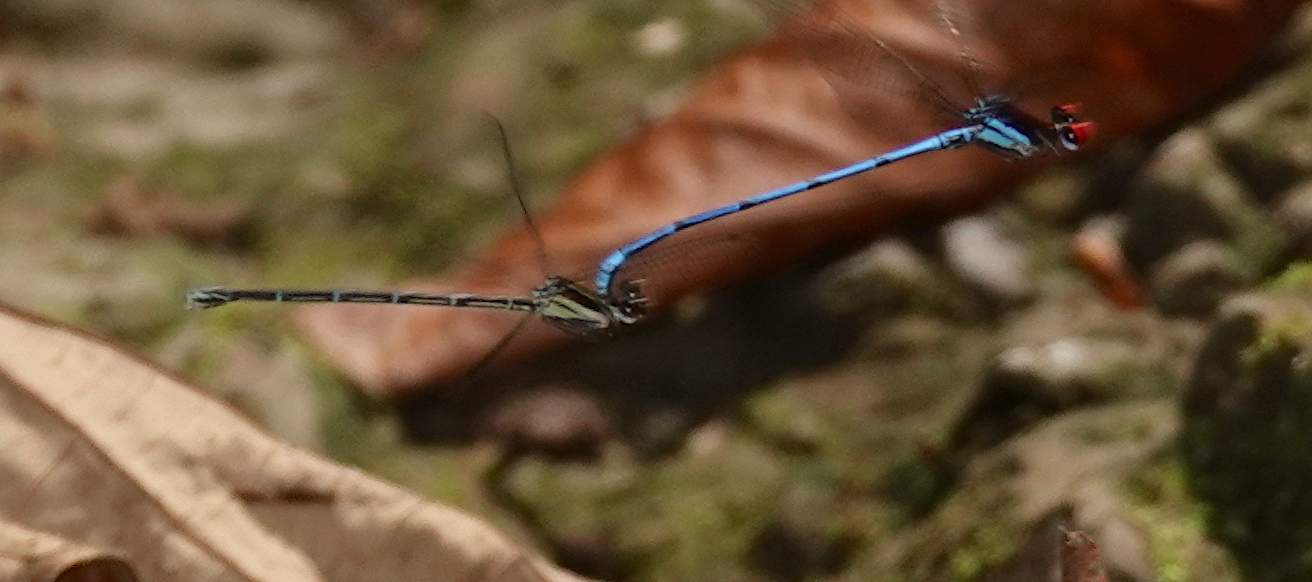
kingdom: Animalia
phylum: Arthropoda
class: Insecta
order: Odonata
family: Coenagrionidae
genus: Argia
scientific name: Argia cupraurea
